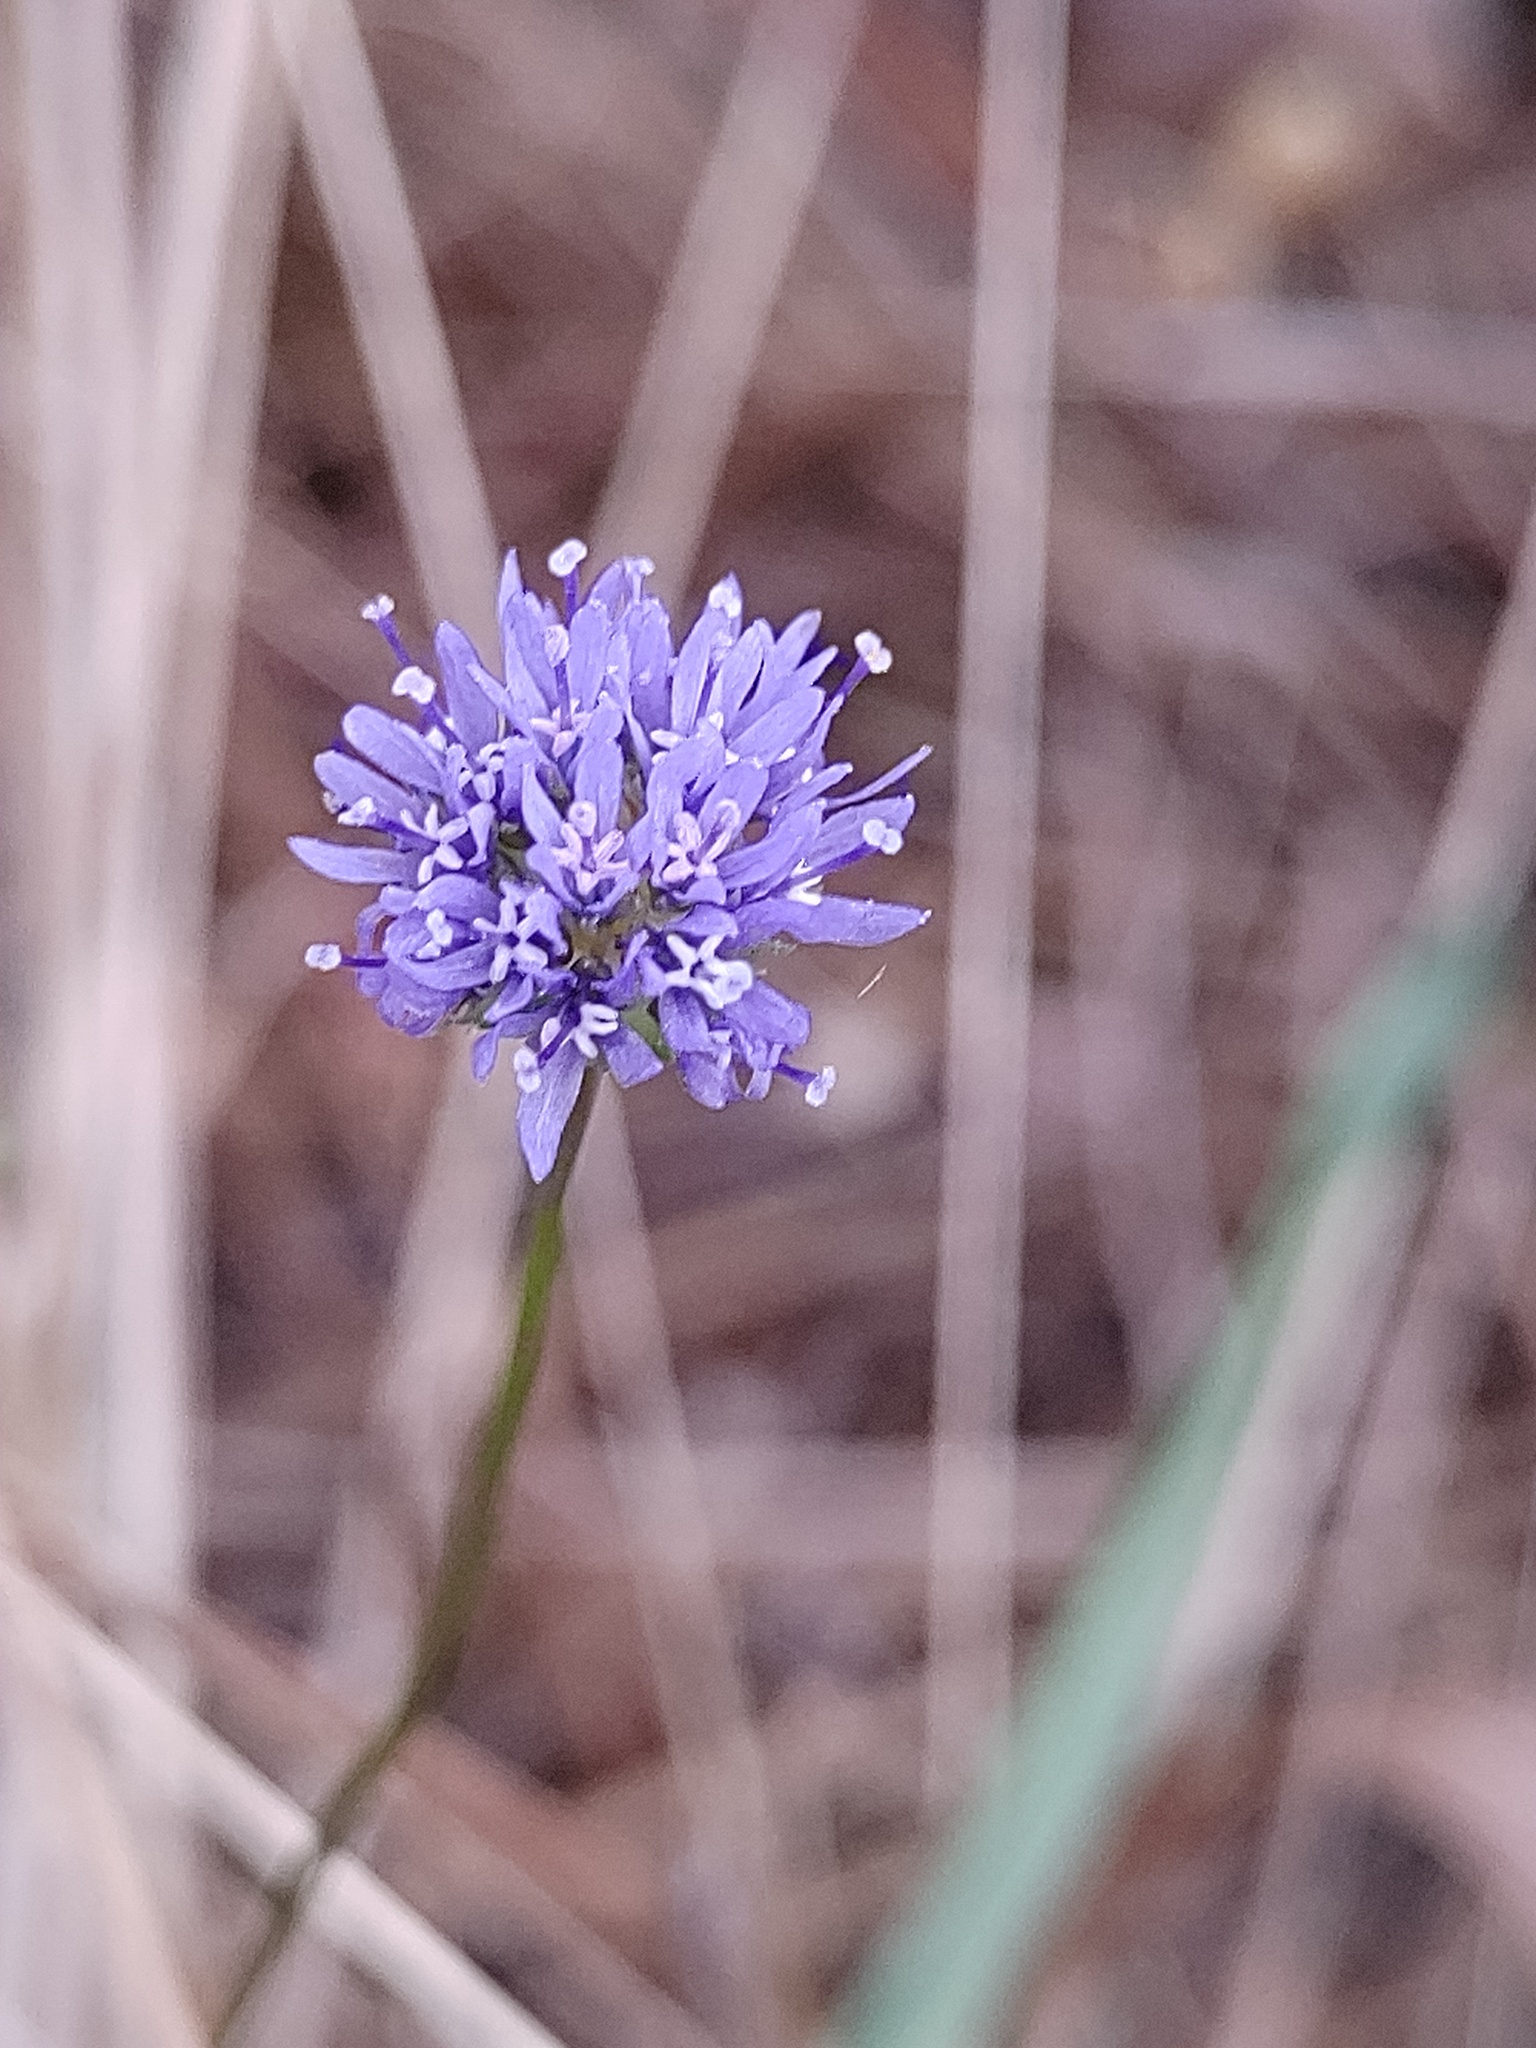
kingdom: Plantae
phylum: Tracheophyta
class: Magnoliopsida
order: Asterales
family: Campanulaceae
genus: Jasione
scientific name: Jasione montana
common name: Sheep's-bit
